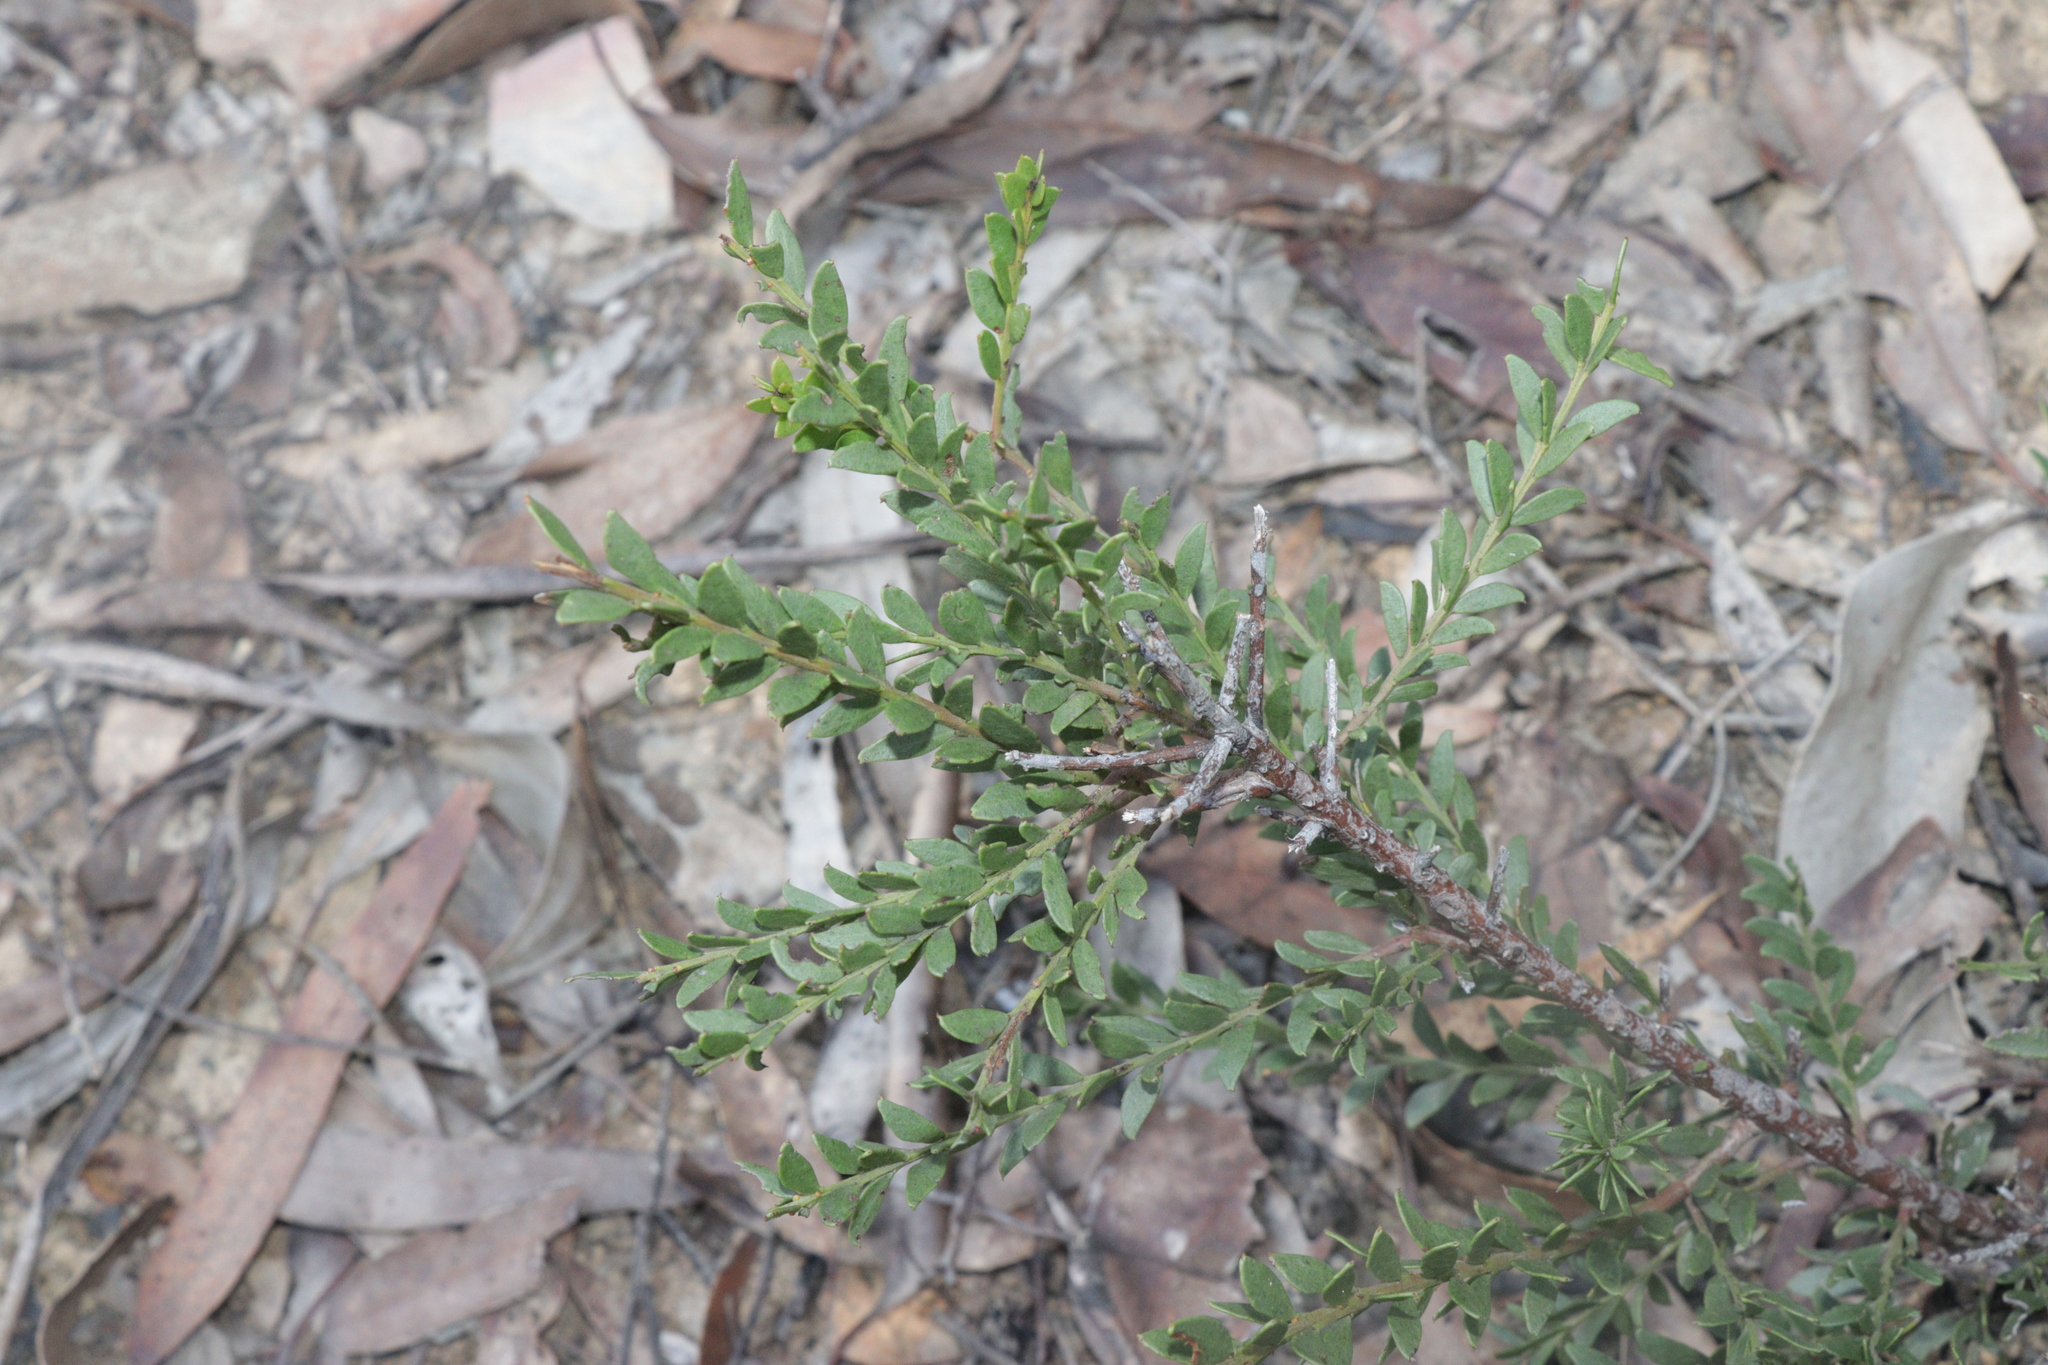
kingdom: Plantae
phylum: Tracheophyta
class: Magnoliopsida
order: Fabales
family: Fabaceae
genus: Acacia
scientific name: Acacia acinacea
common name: Gold-dust acacia
